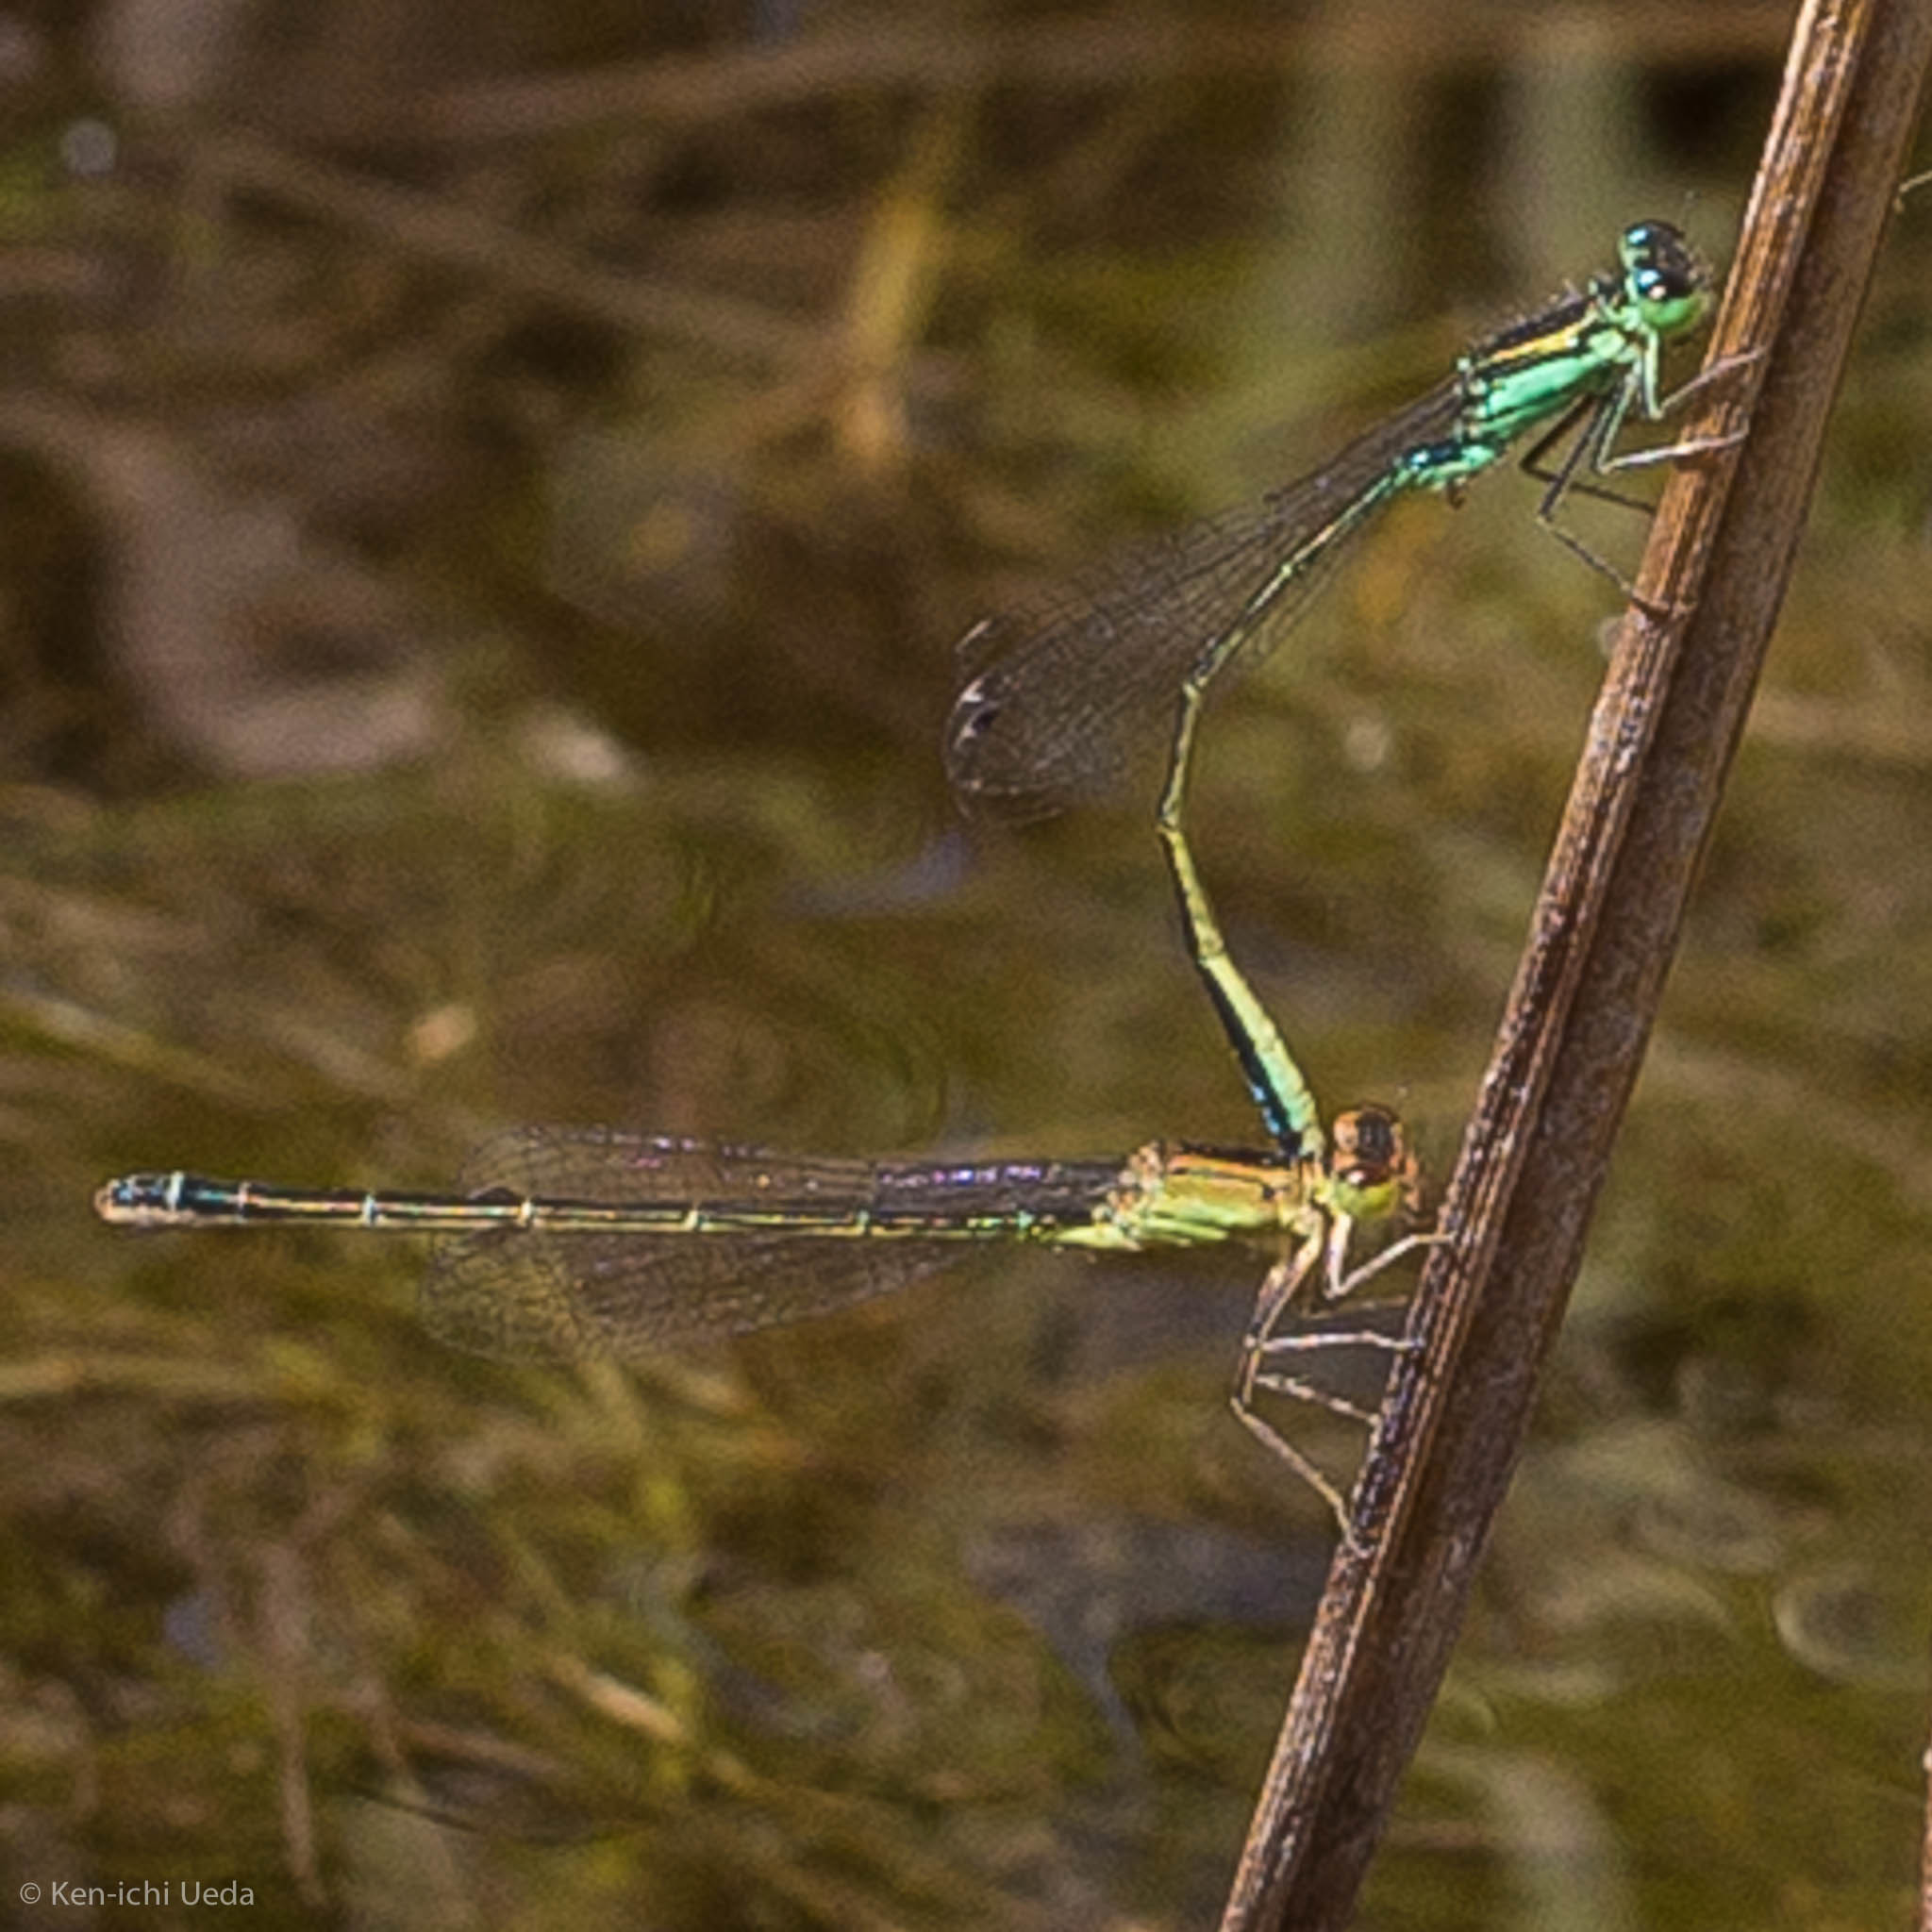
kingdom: Animalia
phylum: Arthropoda
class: Insecta
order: Odonata
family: Coenagrionidae
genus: Ischnura
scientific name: Ischnura denticollis
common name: Black-fronted forktail
